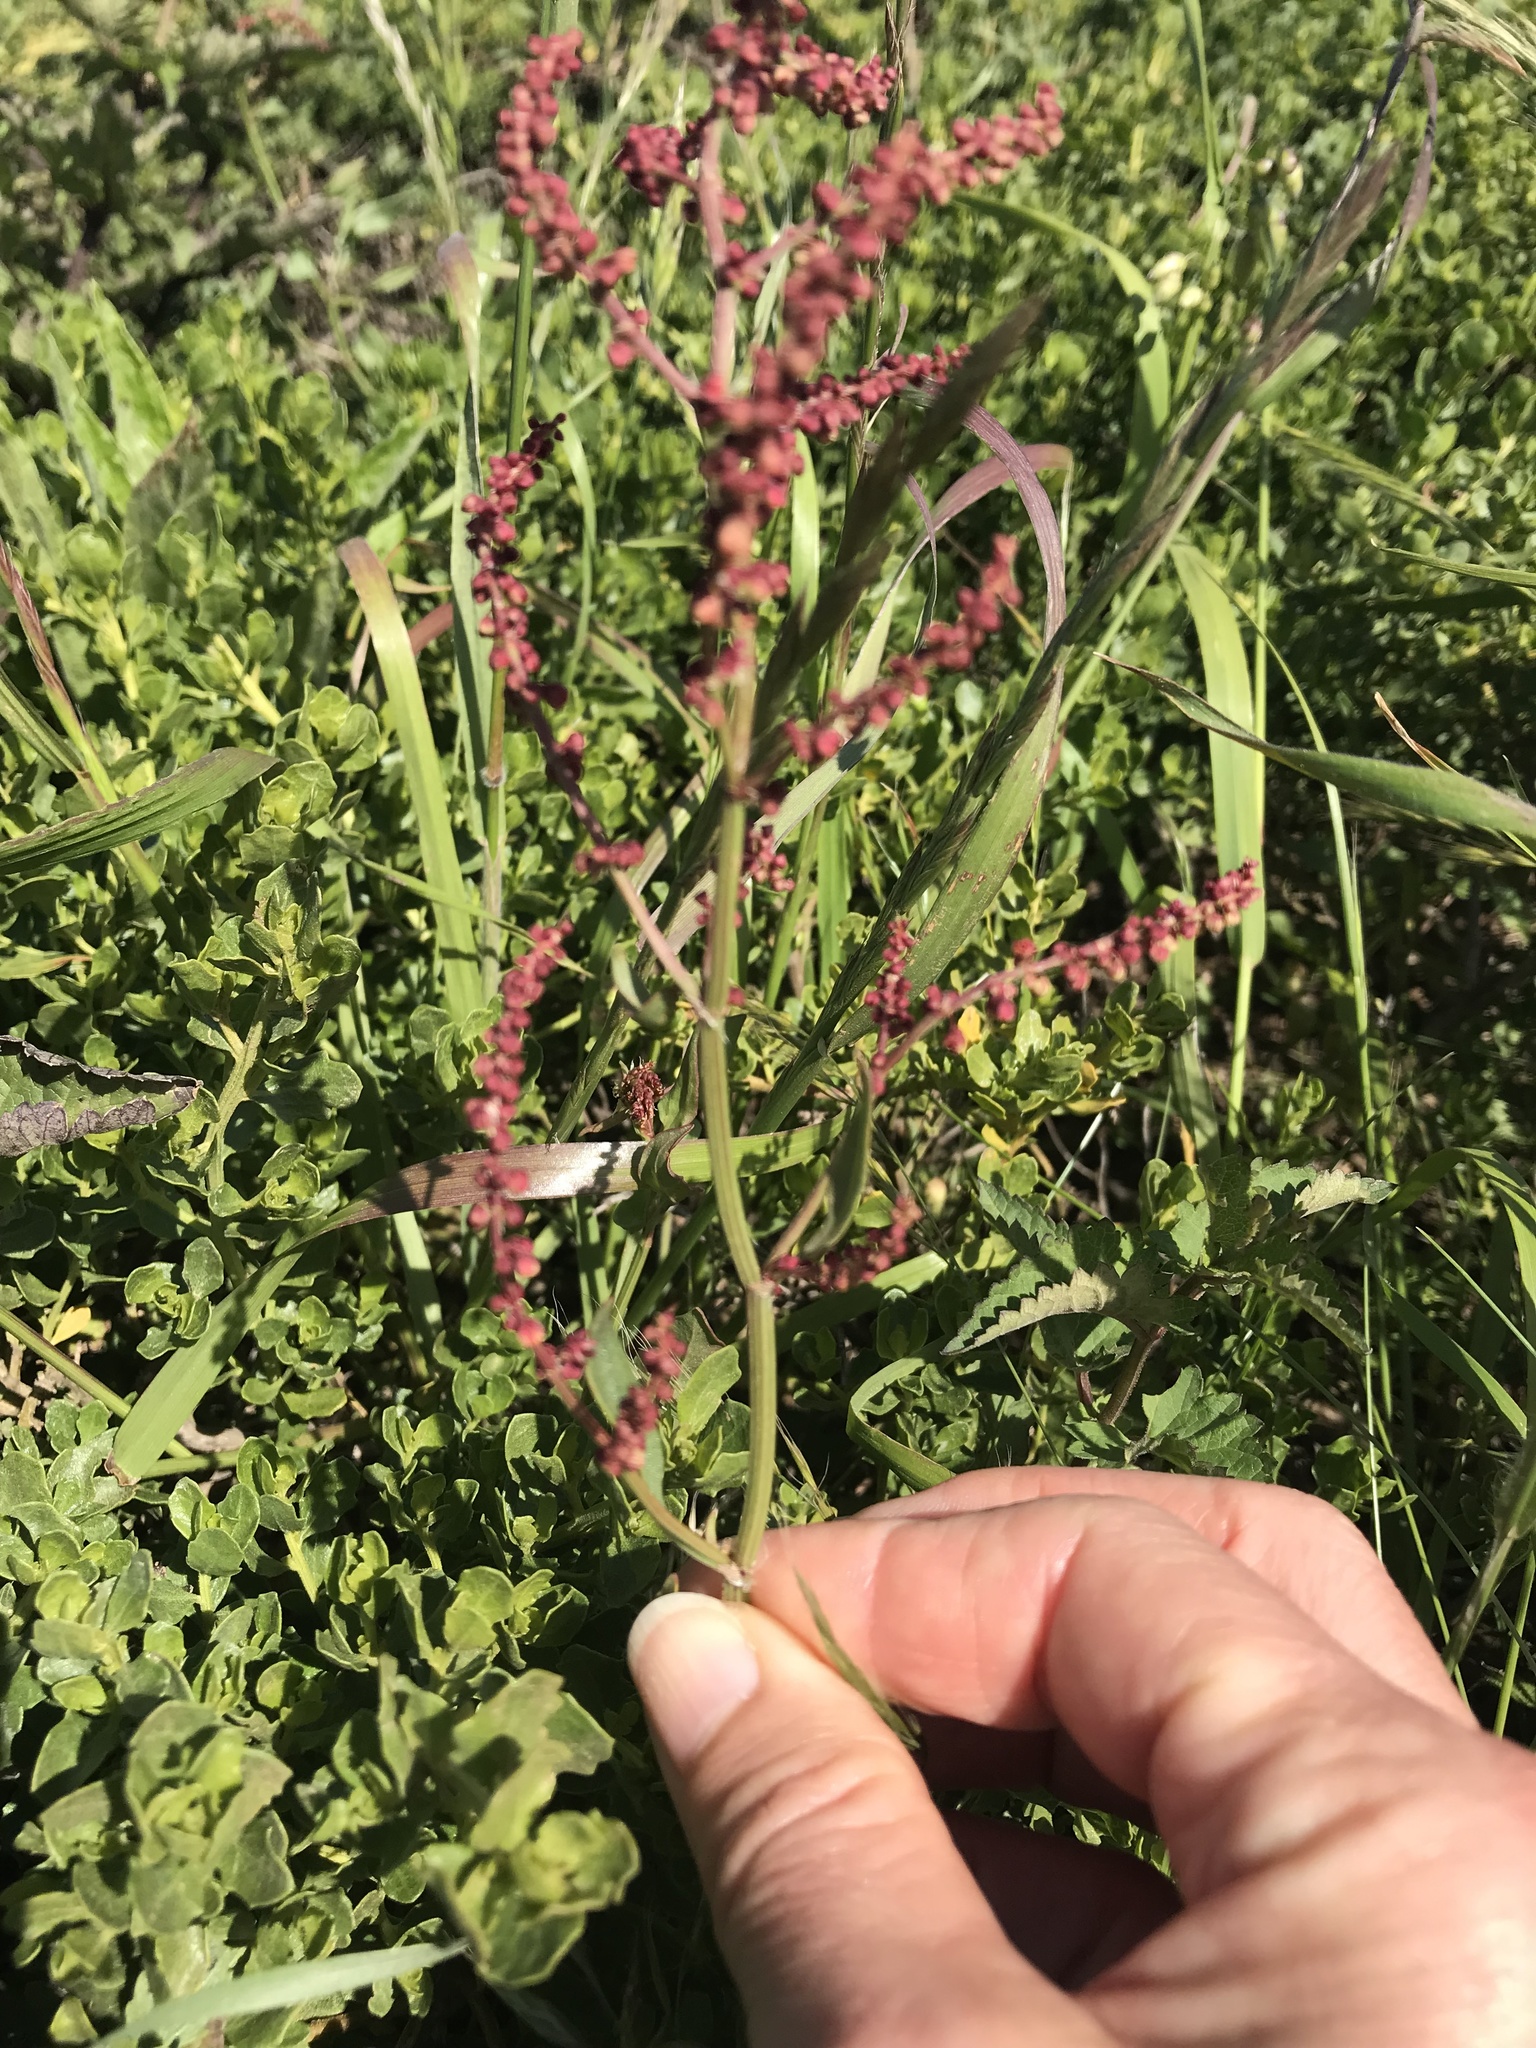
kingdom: Plantae
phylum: Tracheophyta
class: Magnoliopsida
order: Caryophyllales
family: Polygonaceae
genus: Rumex
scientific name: Rumex acetosella
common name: Common sheep sorrel
